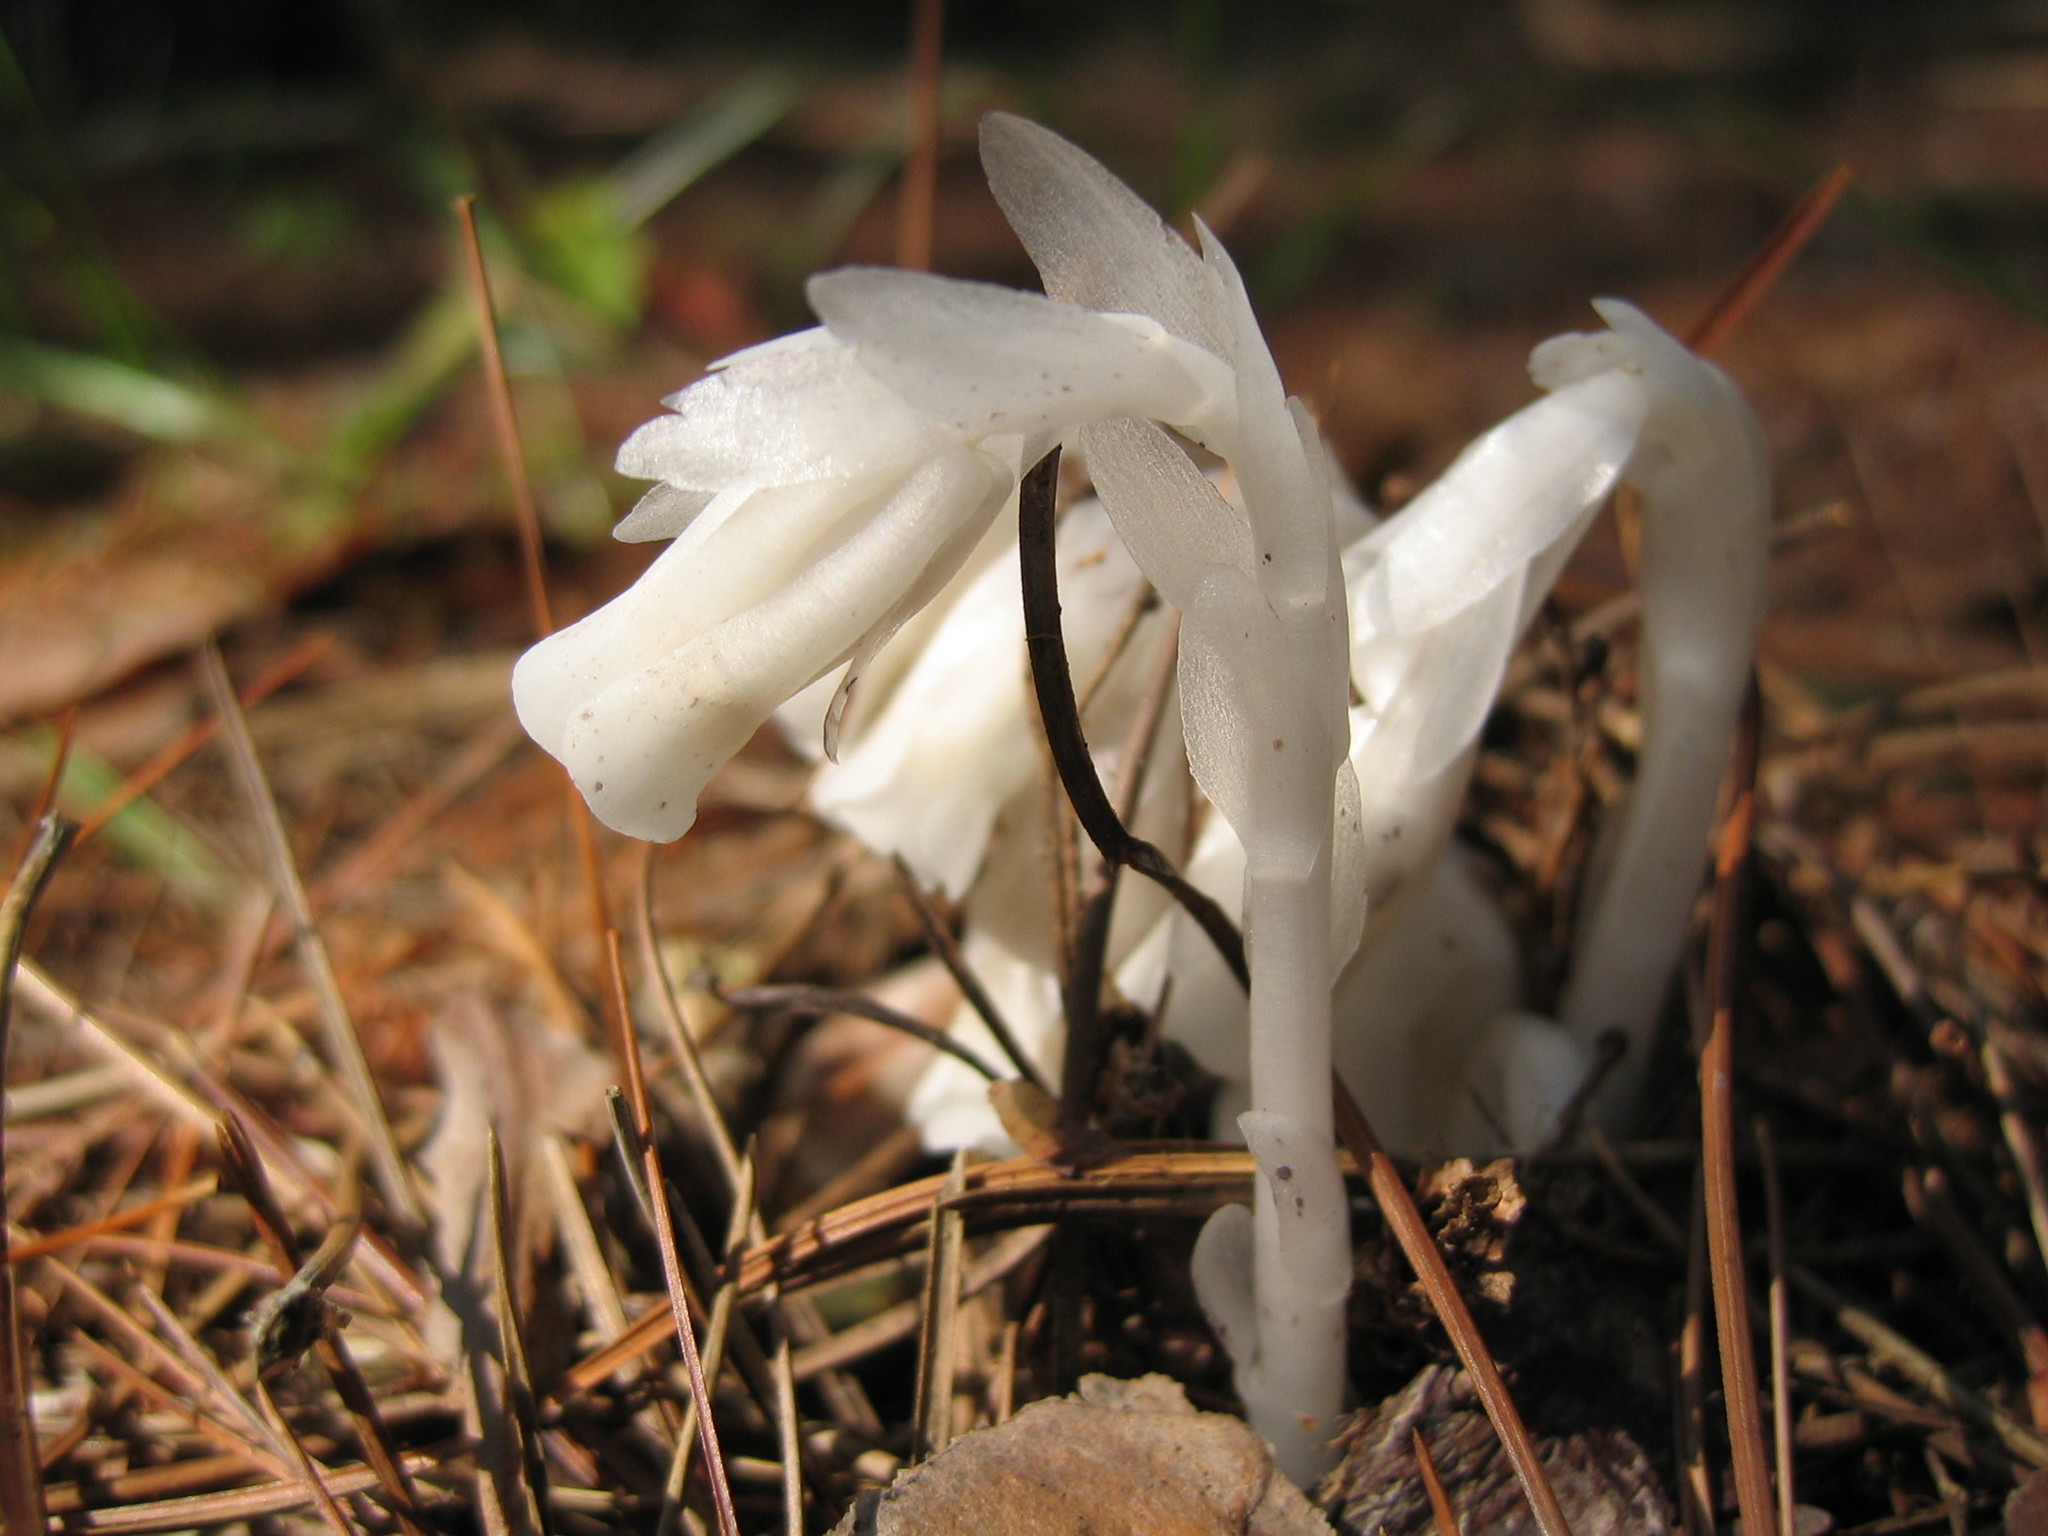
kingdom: Plantae
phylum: Tracheophyta
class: Magnoliopsida
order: Ericales
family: Ericaceae
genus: Monotropa
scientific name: Monotropa uniflora
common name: Convulsion root
